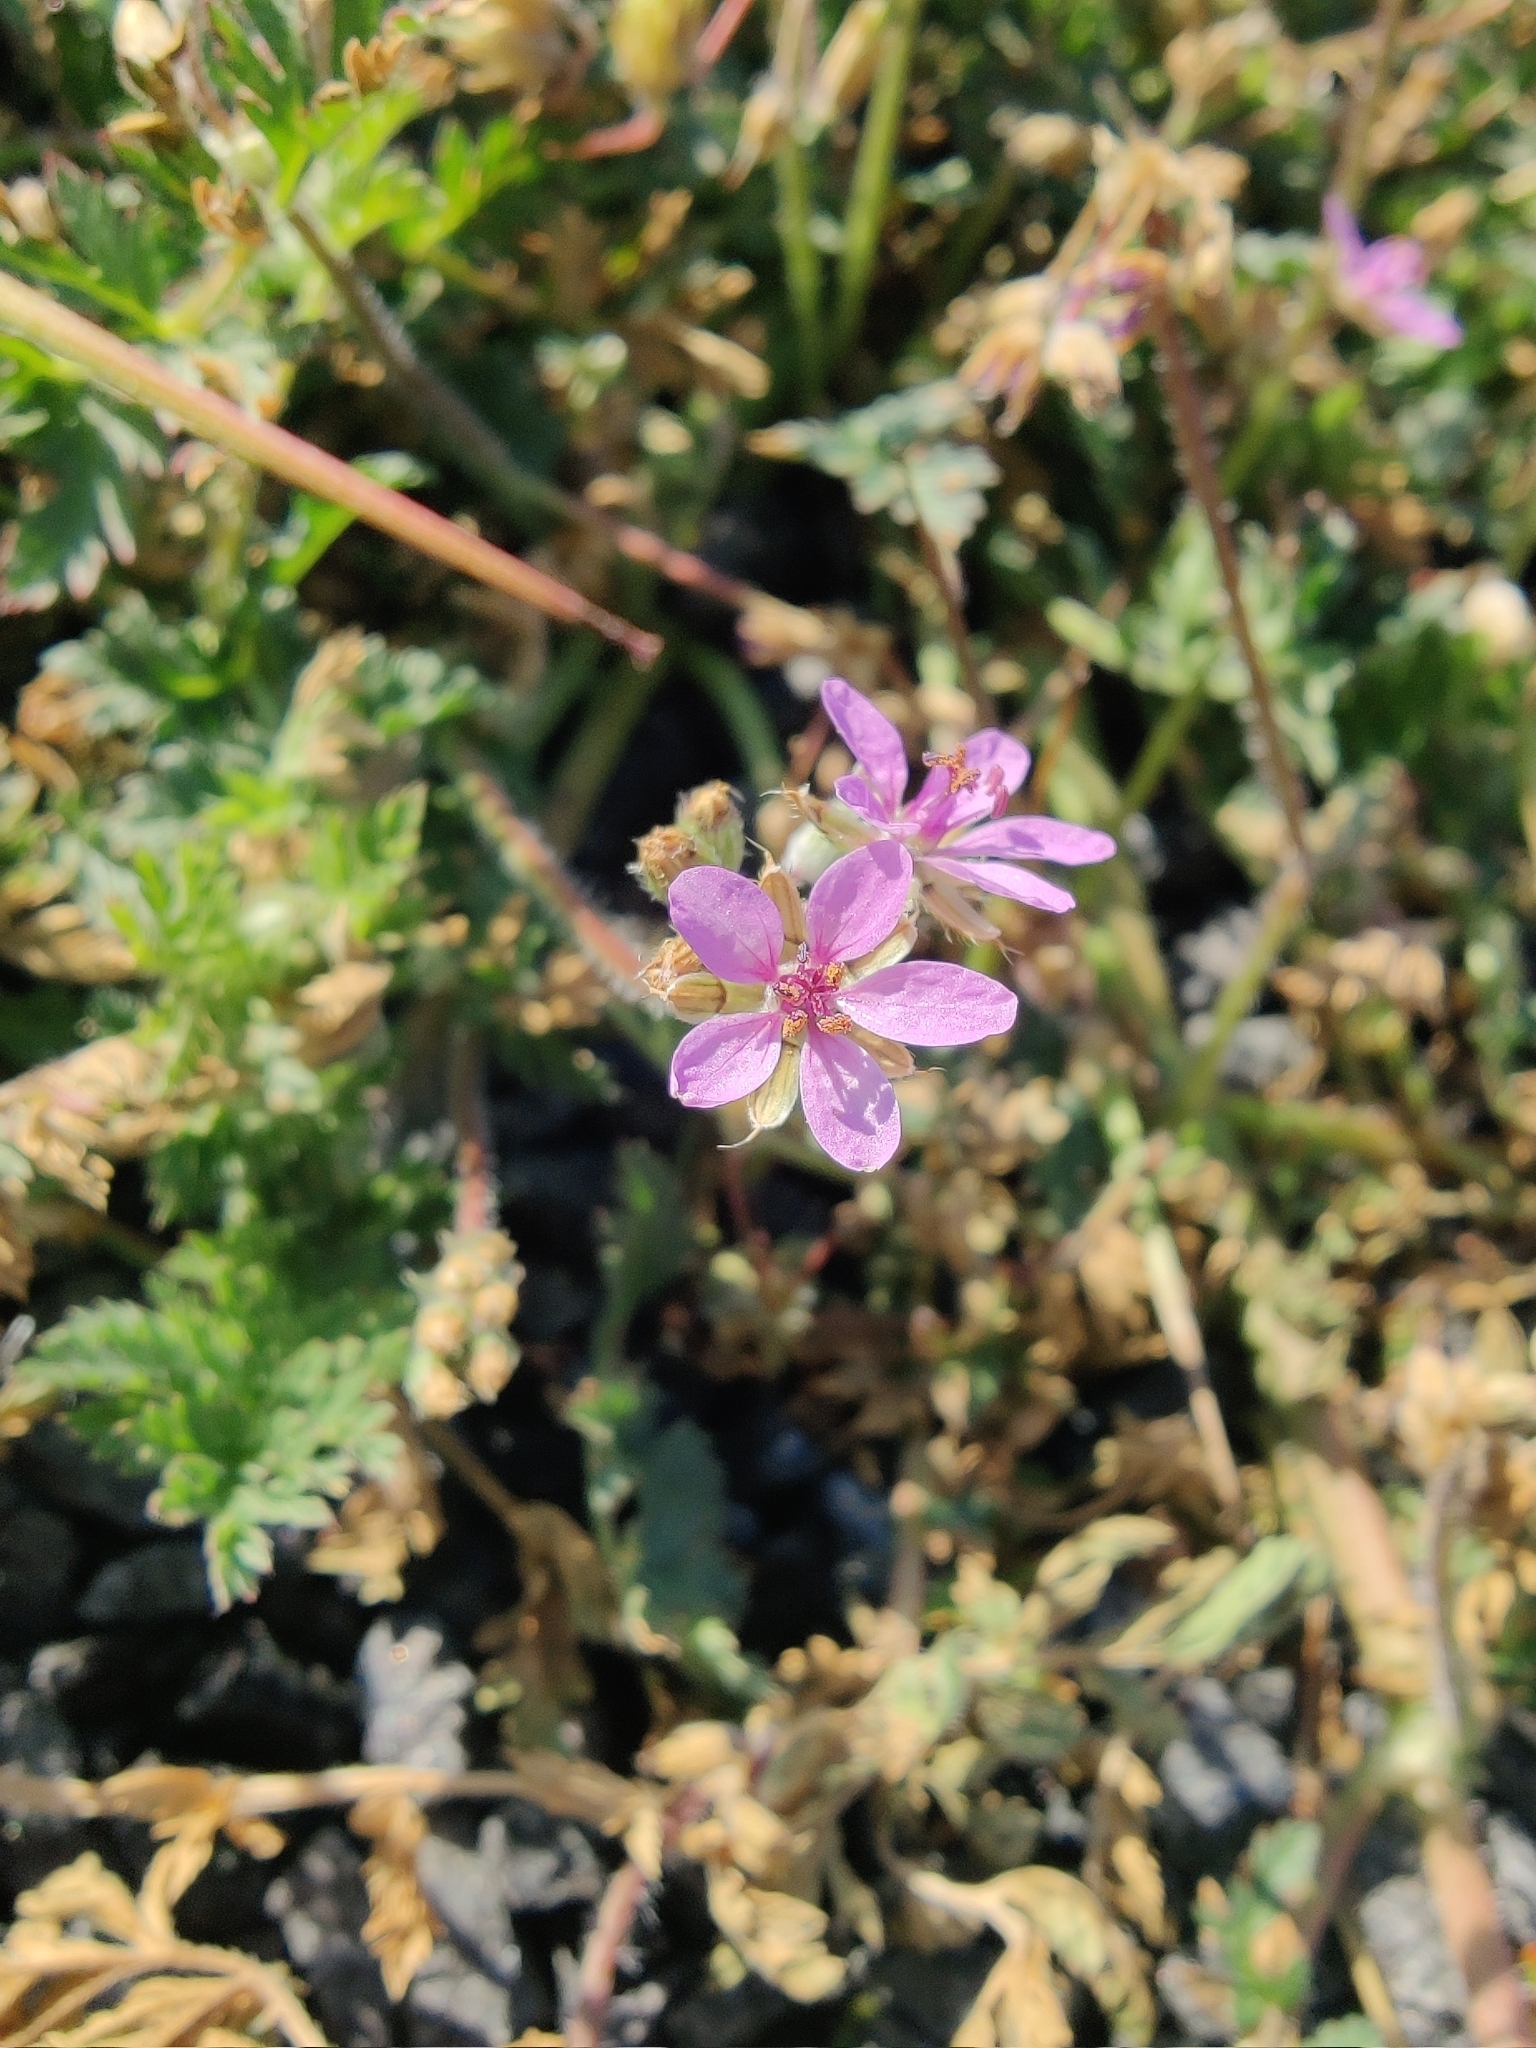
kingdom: Plantae
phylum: Tracheophyta
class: Magnoliopsida
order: Geraniales
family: Geraniaceae
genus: Erodium
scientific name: Erodium cicutarium
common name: Common stork's-bill
